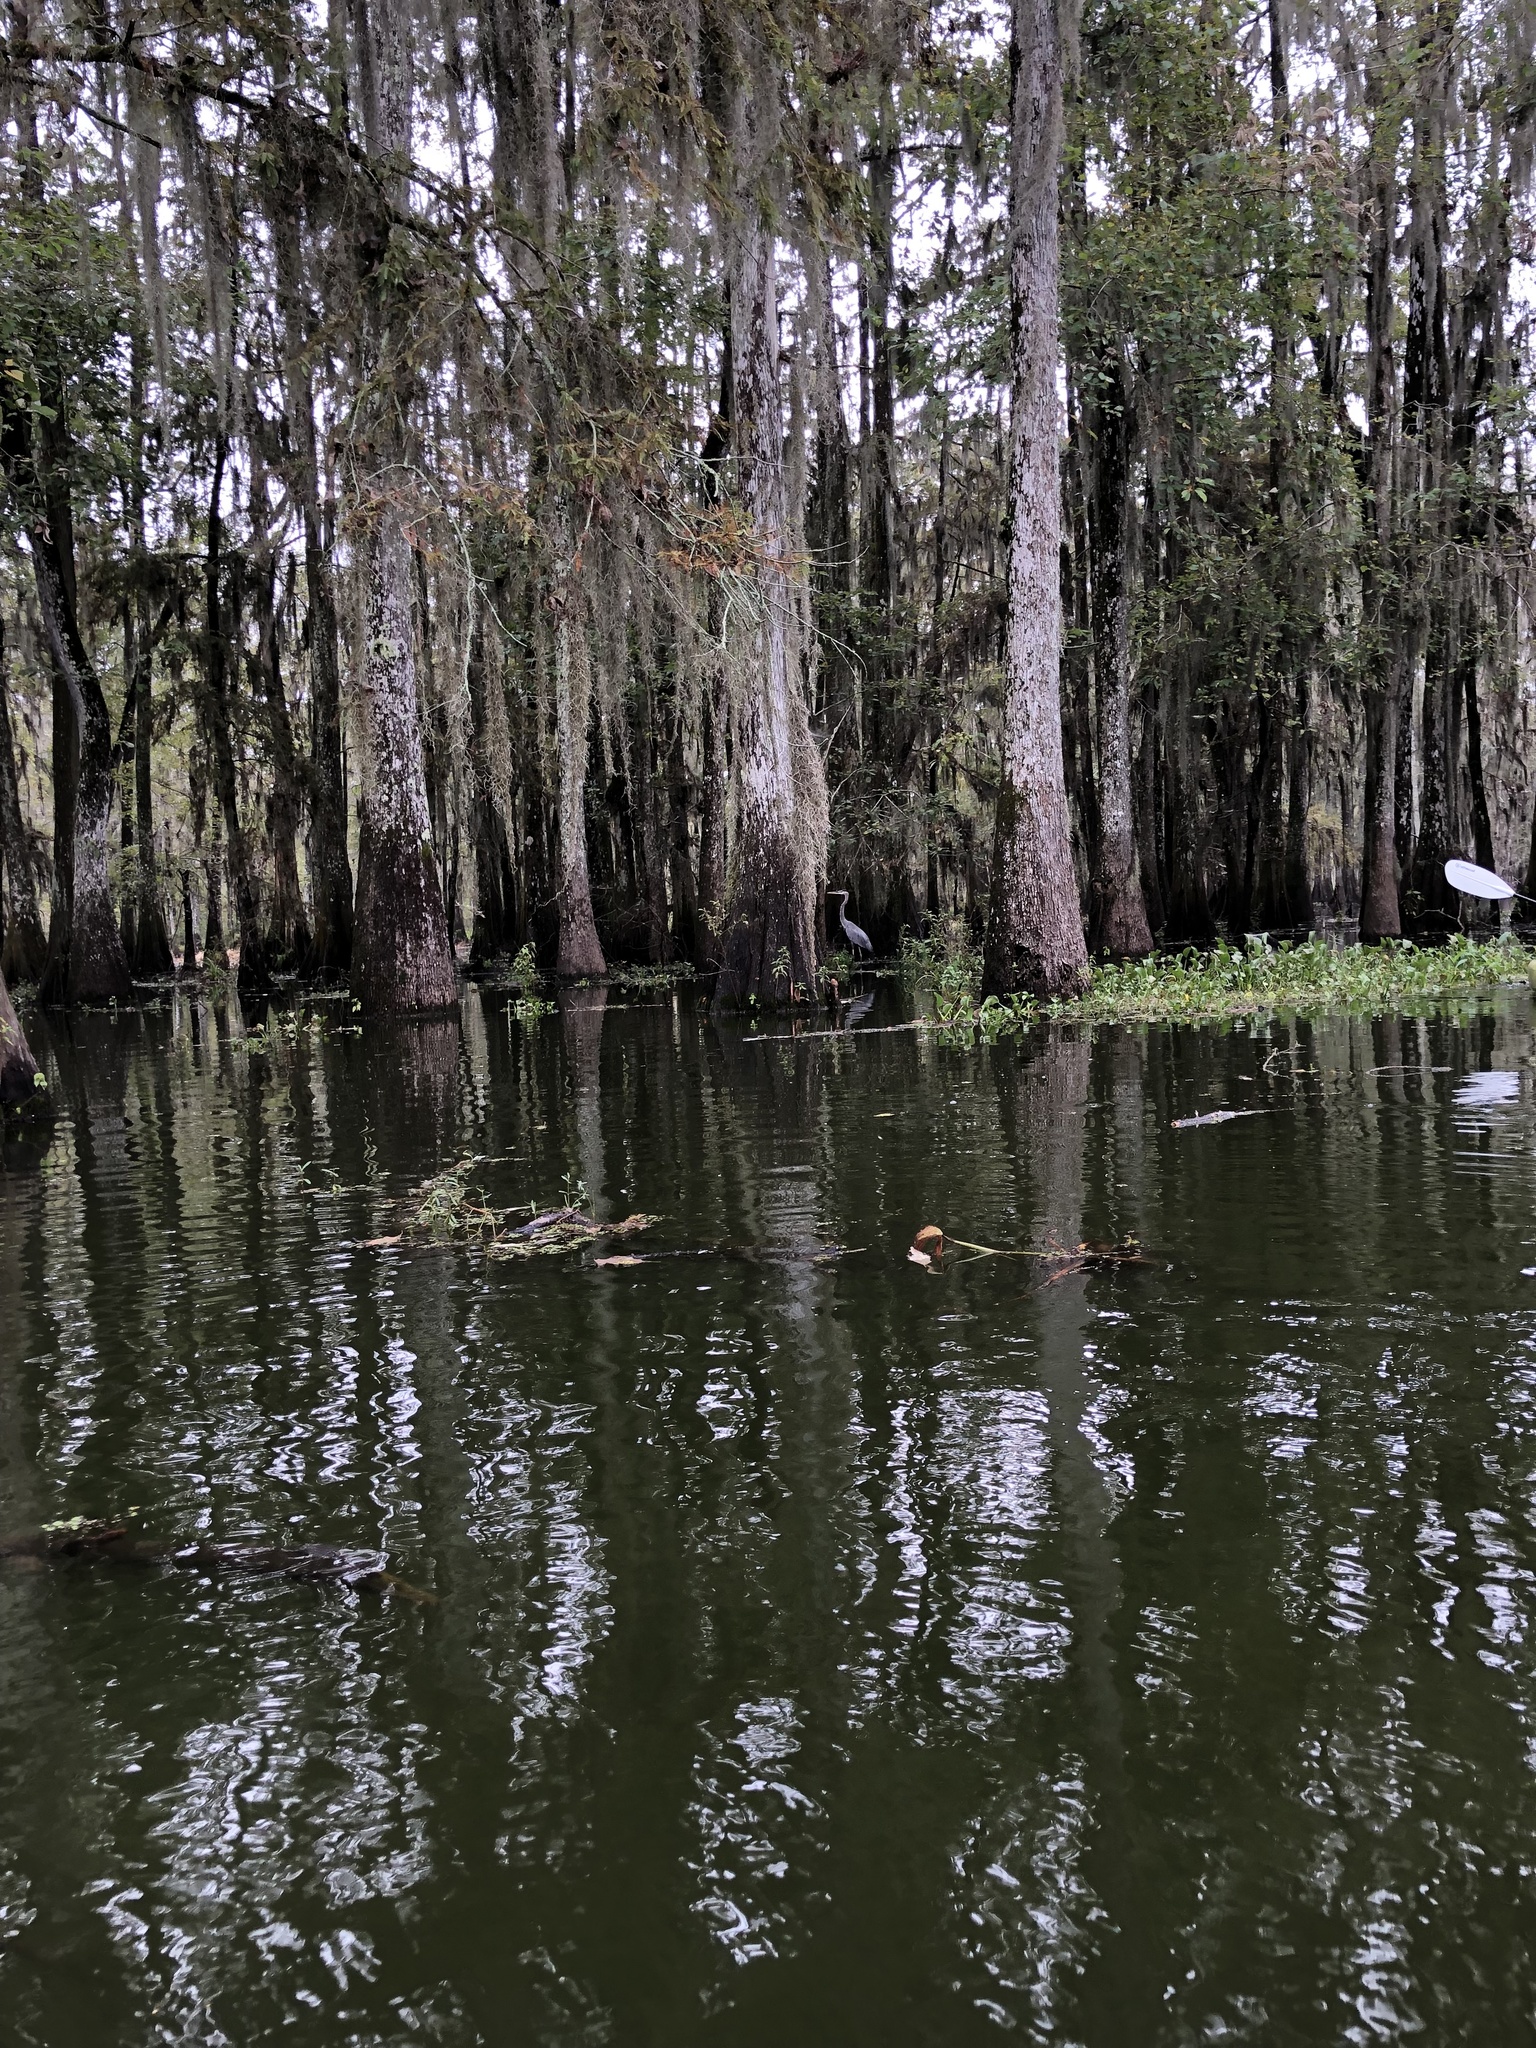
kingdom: Animalia
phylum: Chordata
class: Aves
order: Pelecaniformes
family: Ardeidae
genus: Ardea
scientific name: Ardea herodias
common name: Great blue heron
